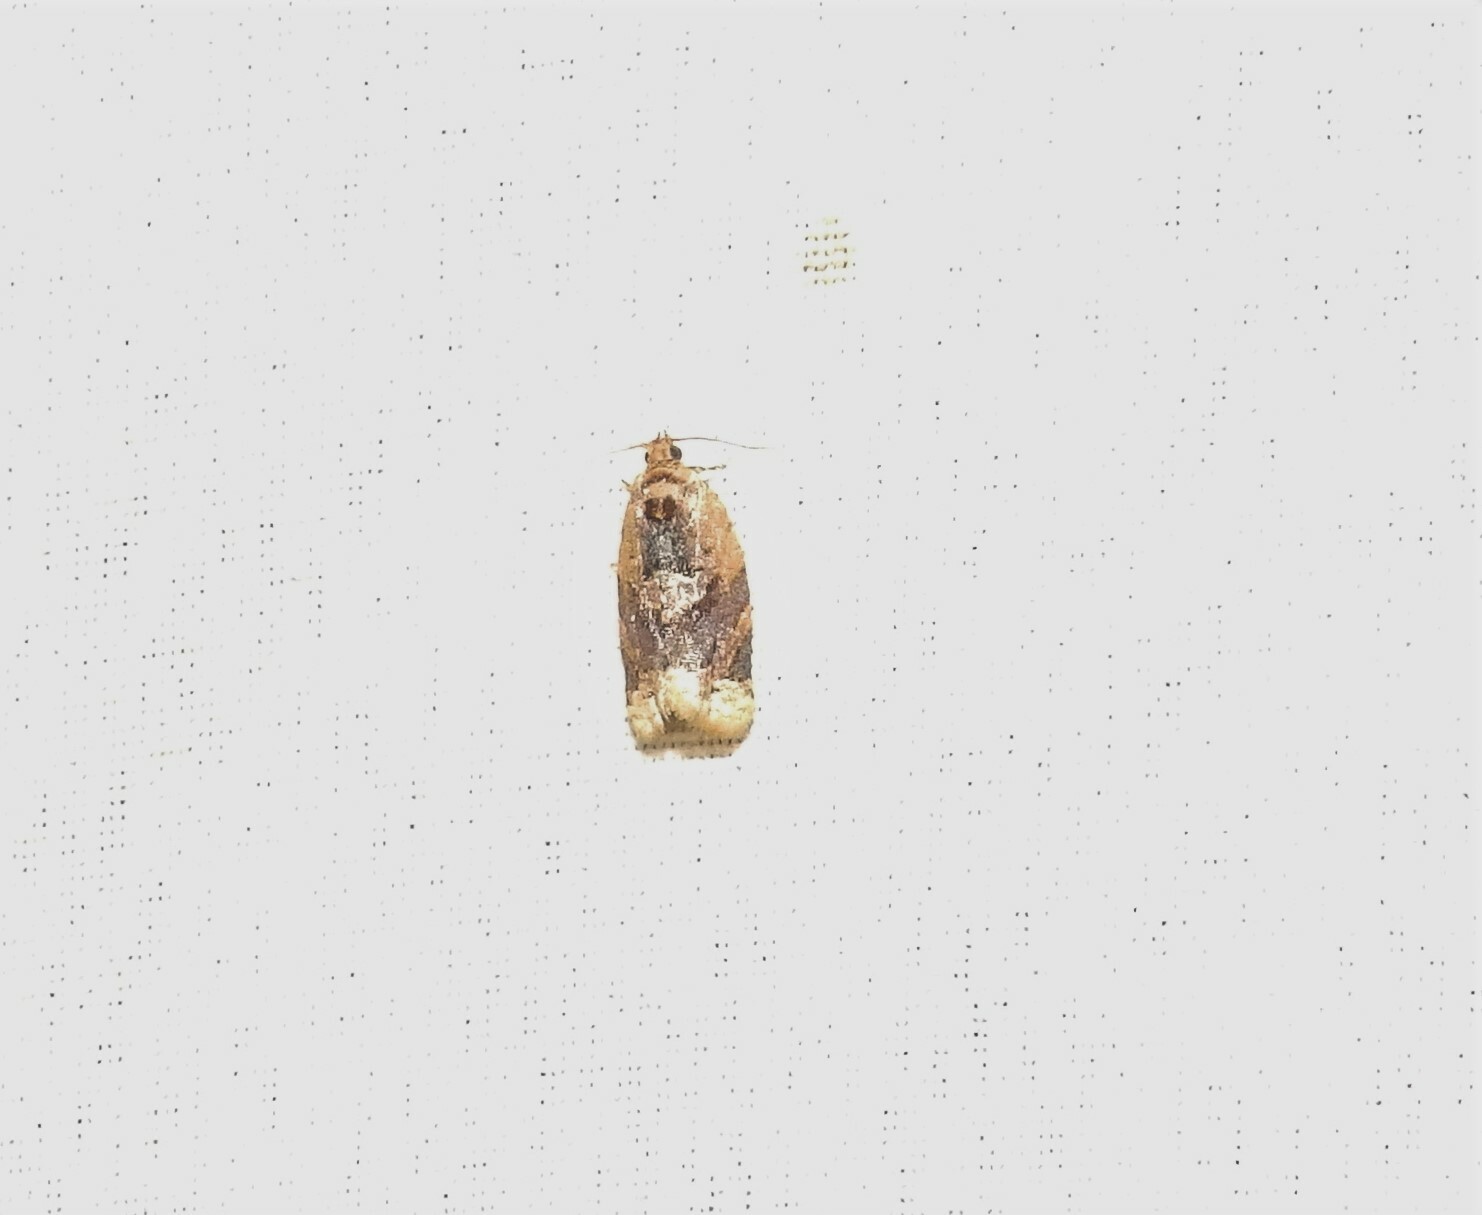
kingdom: Animalia
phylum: Arthropoda
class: Insecta
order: Lepidoptera
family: Tortricidae
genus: Argyrotaenia
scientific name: Argyrotaenia velutinana
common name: Red-banded leafroller moth
